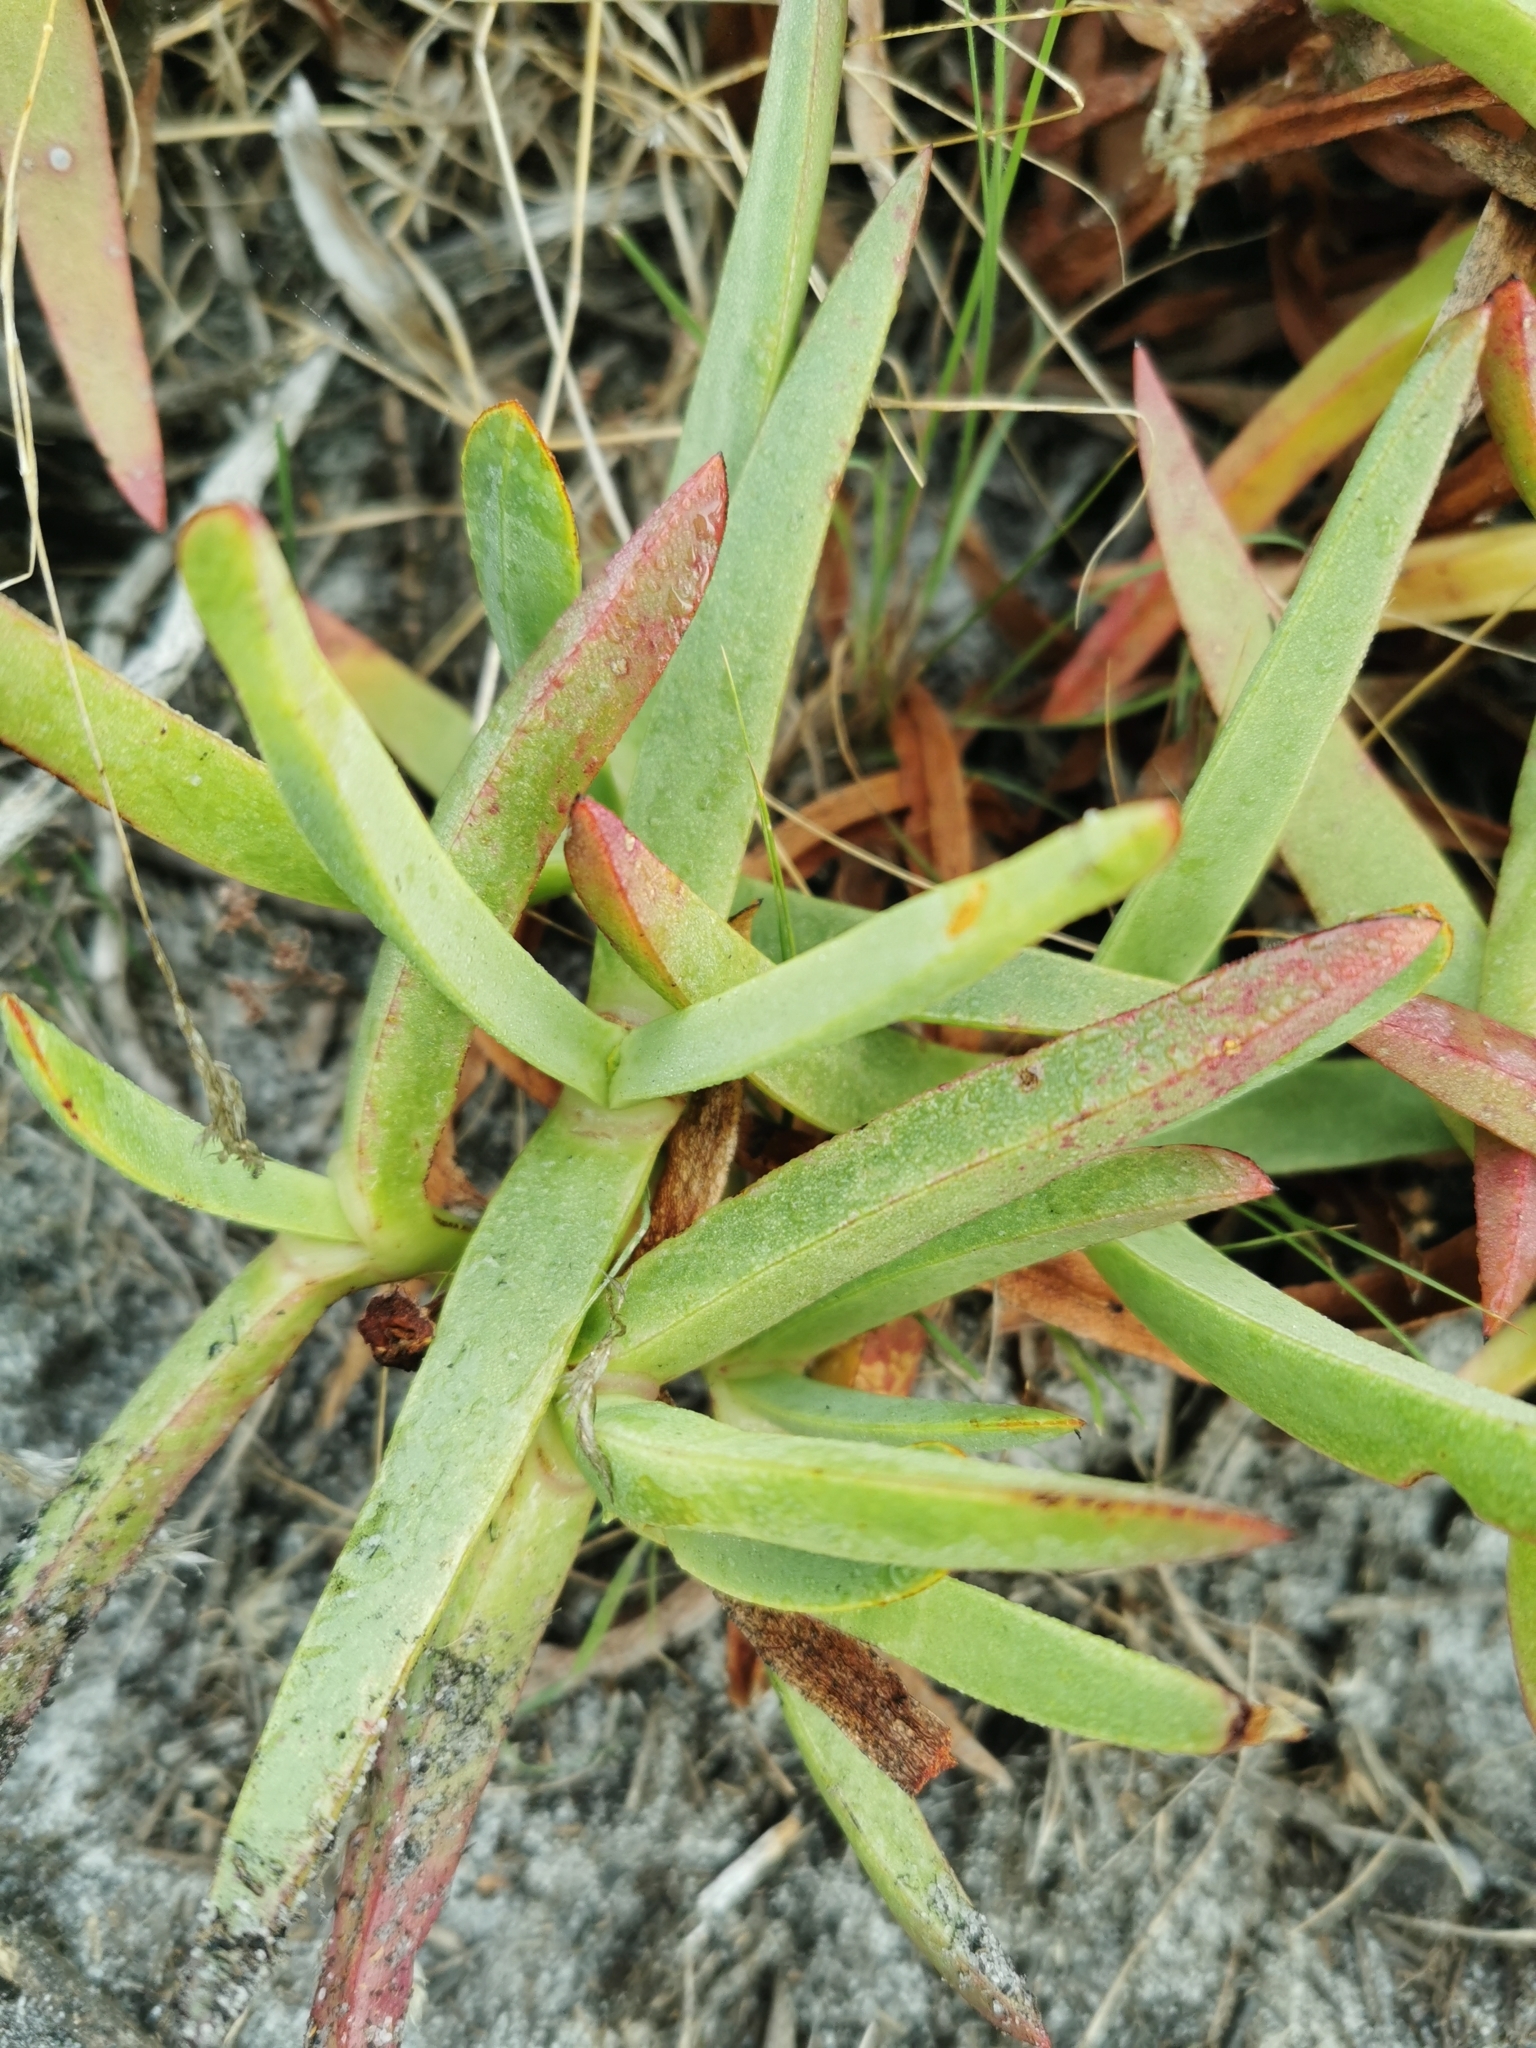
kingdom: Plantae
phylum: Tracheophyta
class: Magnoliopsida
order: Caryophyllales
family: Aizoaceae
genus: Carpobrotus
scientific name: Carpobrotus edulis
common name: Hottentot-fig
